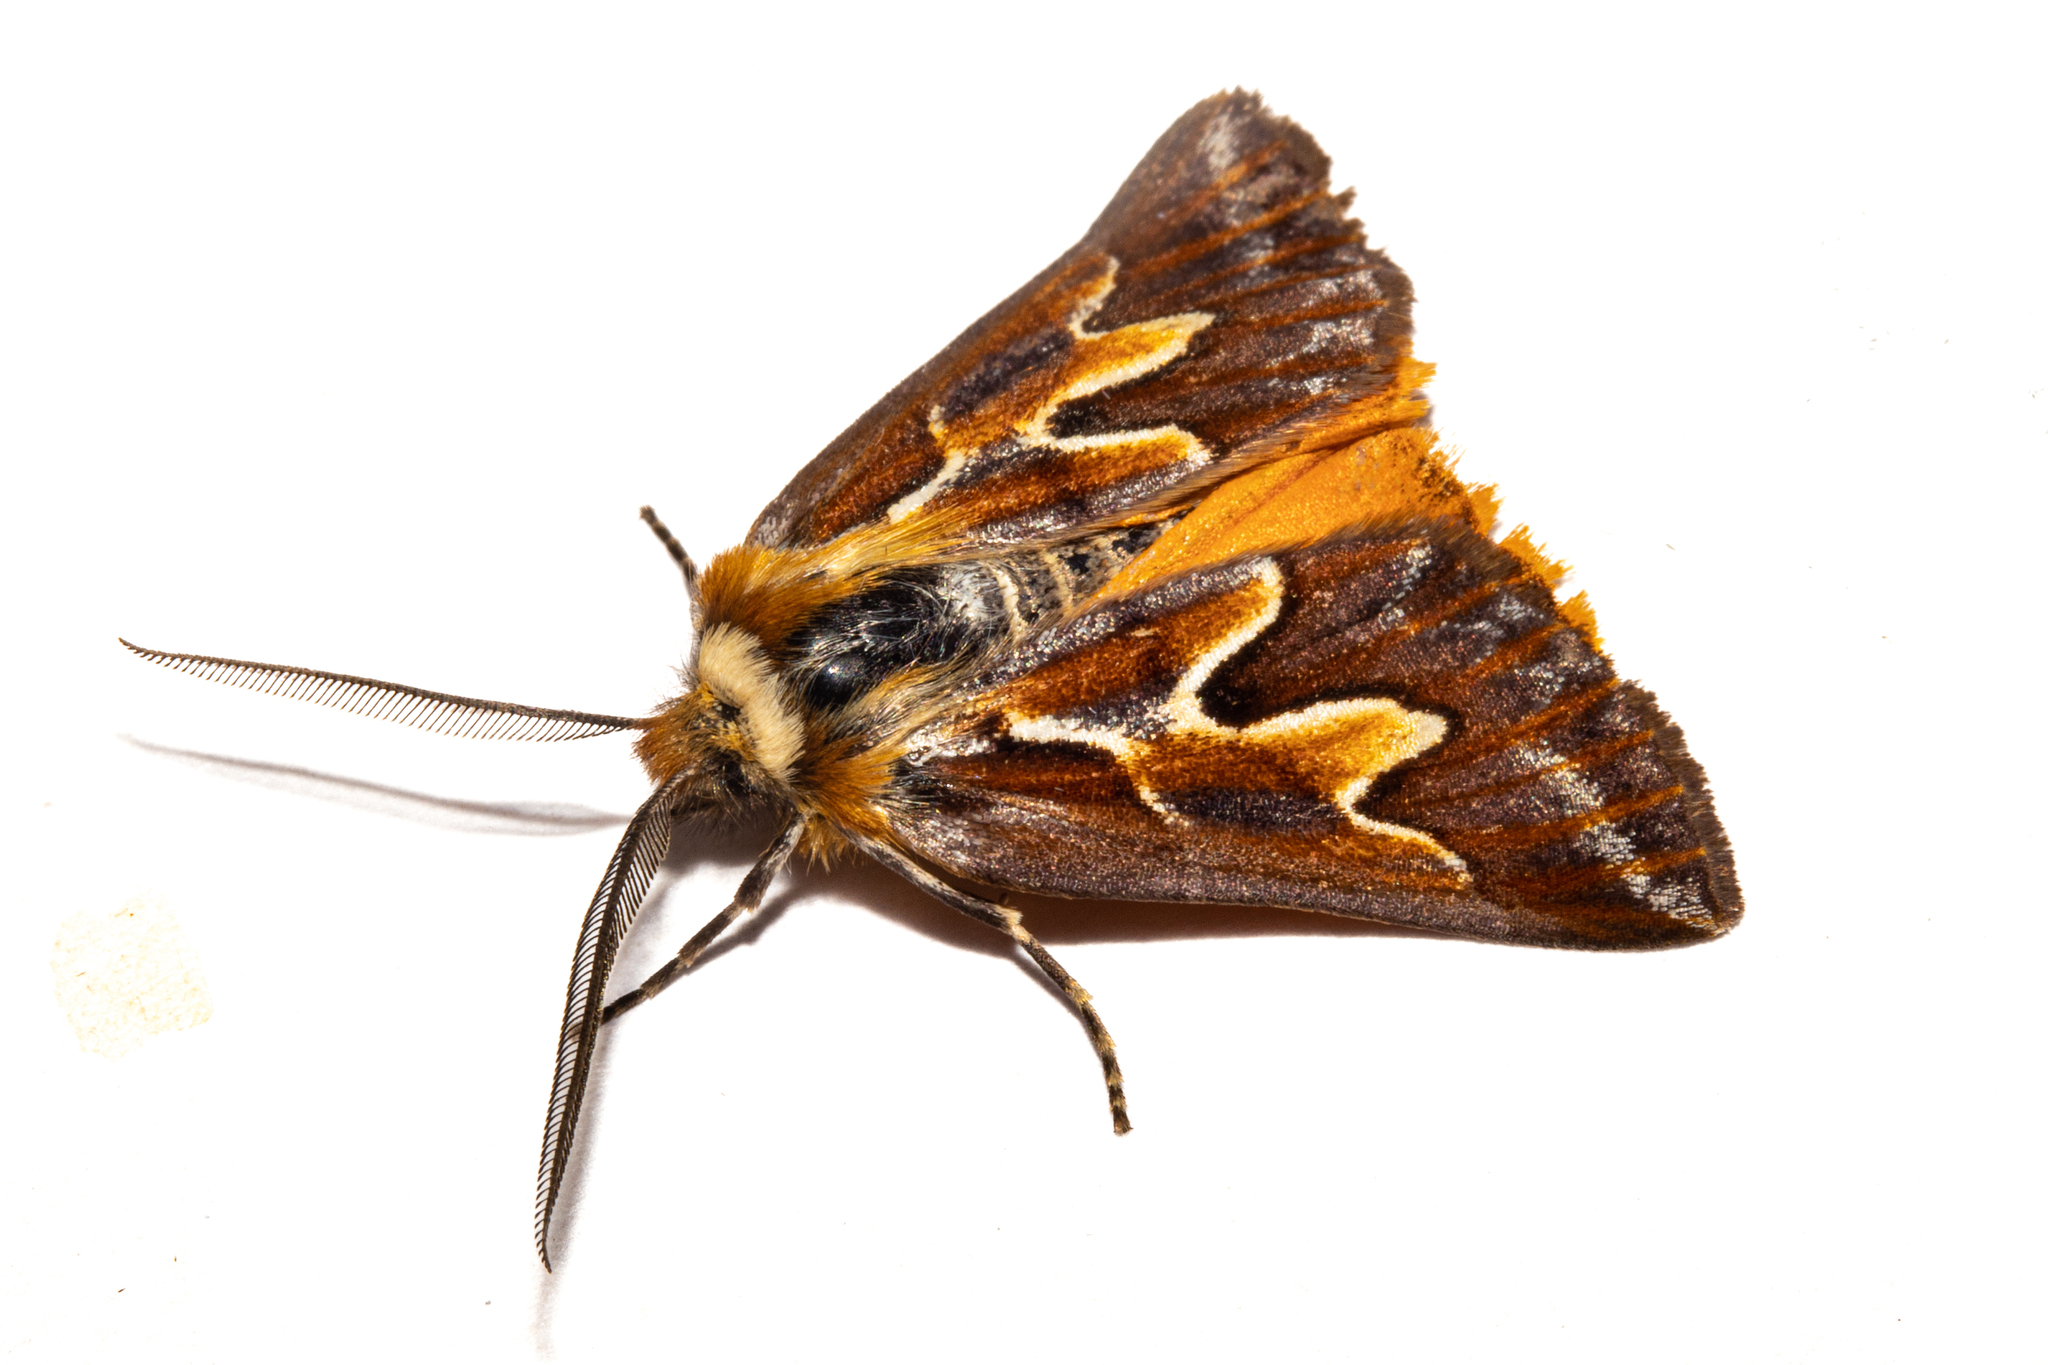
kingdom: Animalia
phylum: Arthropoda
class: Insecta
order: Lepidoptera
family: Geometridae
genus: Declana
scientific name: Declana
